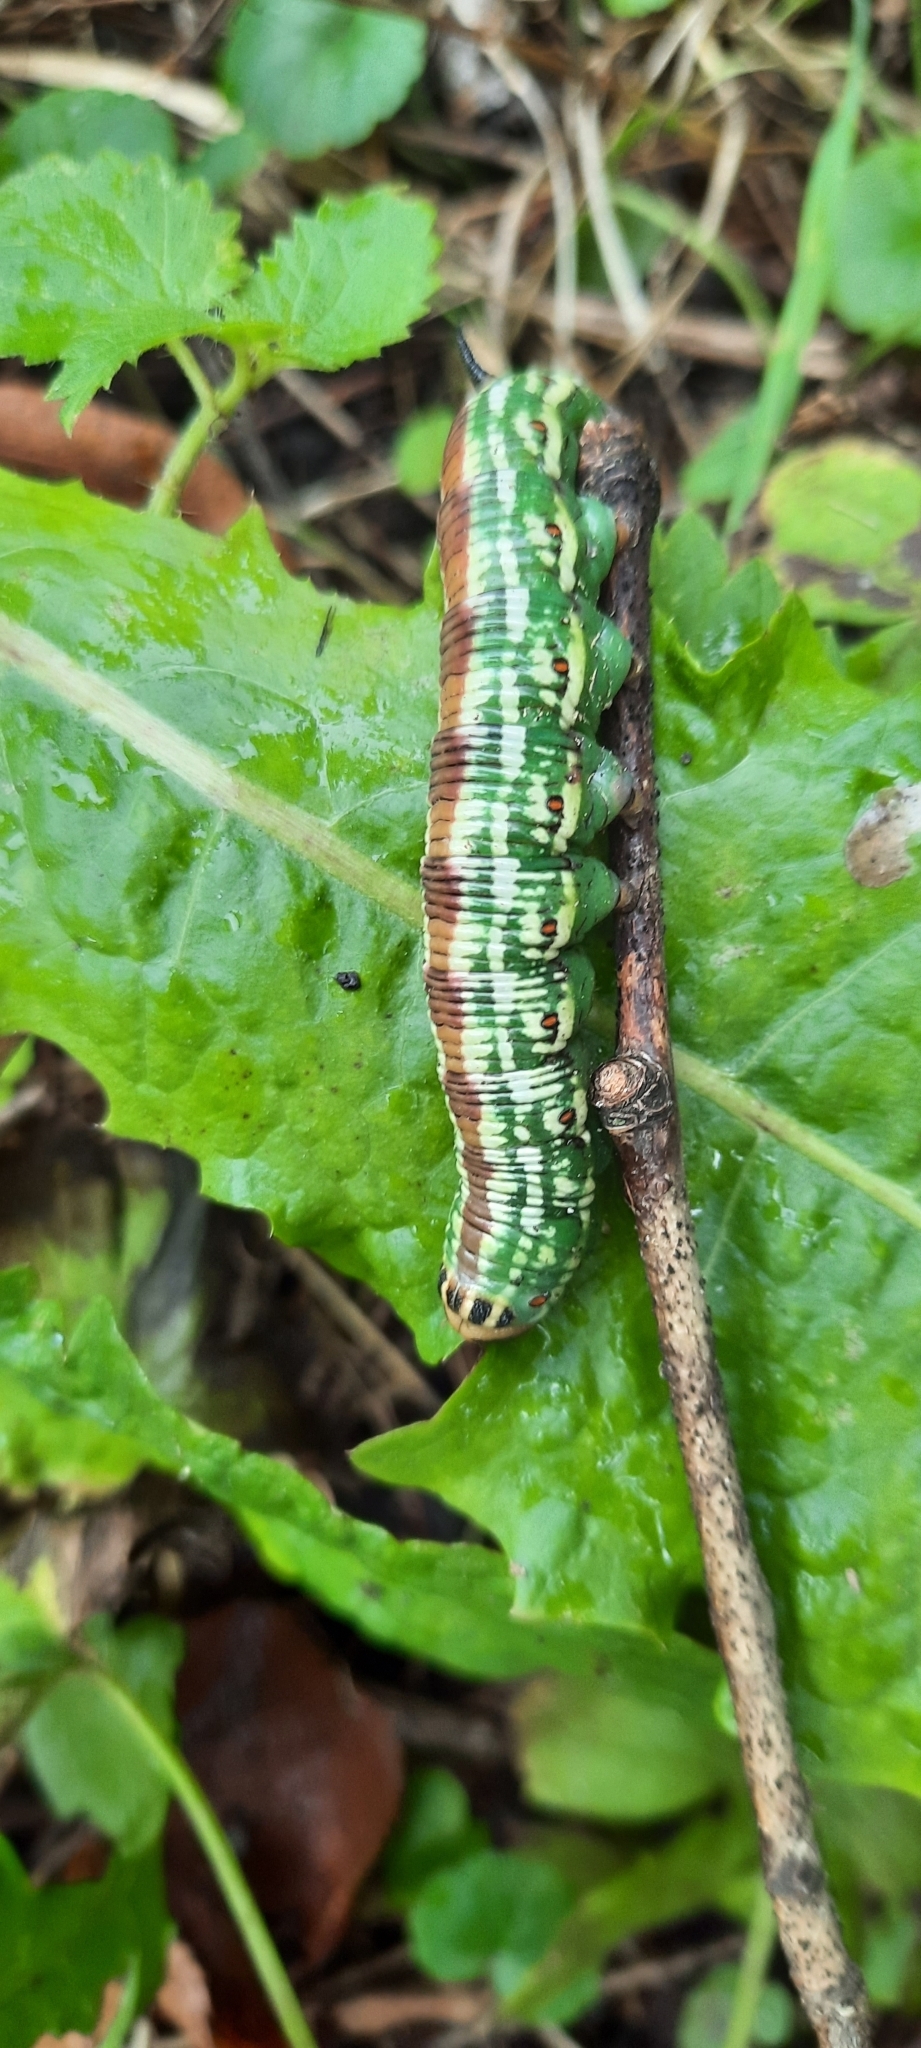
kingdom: Animalia
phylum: Arthropoda
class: Insecta
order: Lepidoptera
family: Sphingidae
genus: Sphinx
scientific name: Sphinx pinastri
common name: Pine hawk-moth
